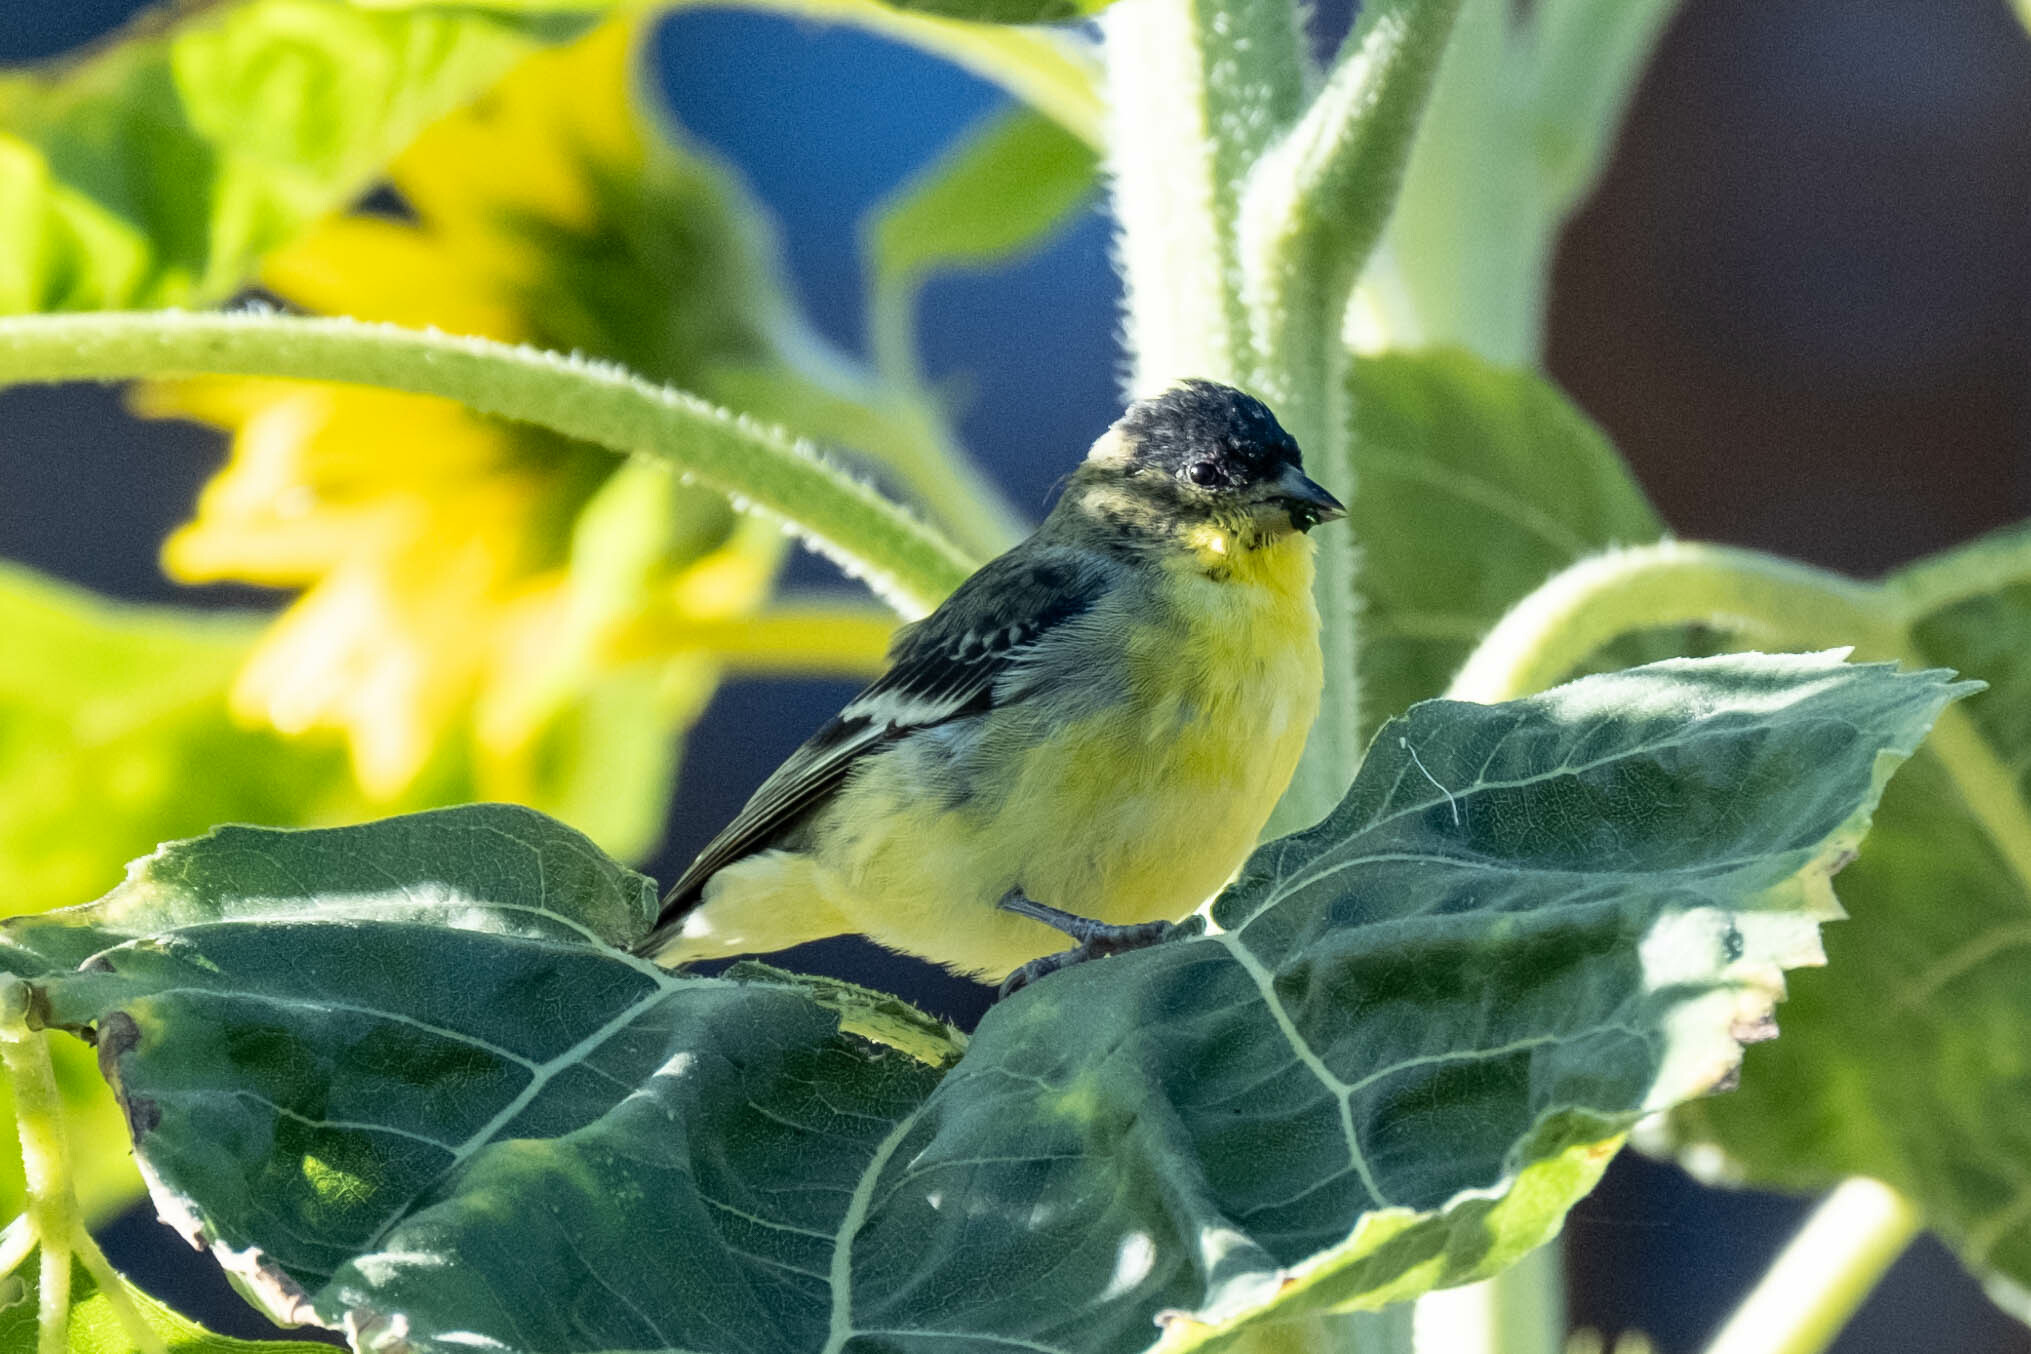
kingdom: Animalia
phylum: Chordata
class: Aves
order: Passeriformes
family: Fringillidae
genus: Spinus
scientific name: Spinus psaltria
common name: Lesser goldfinch
